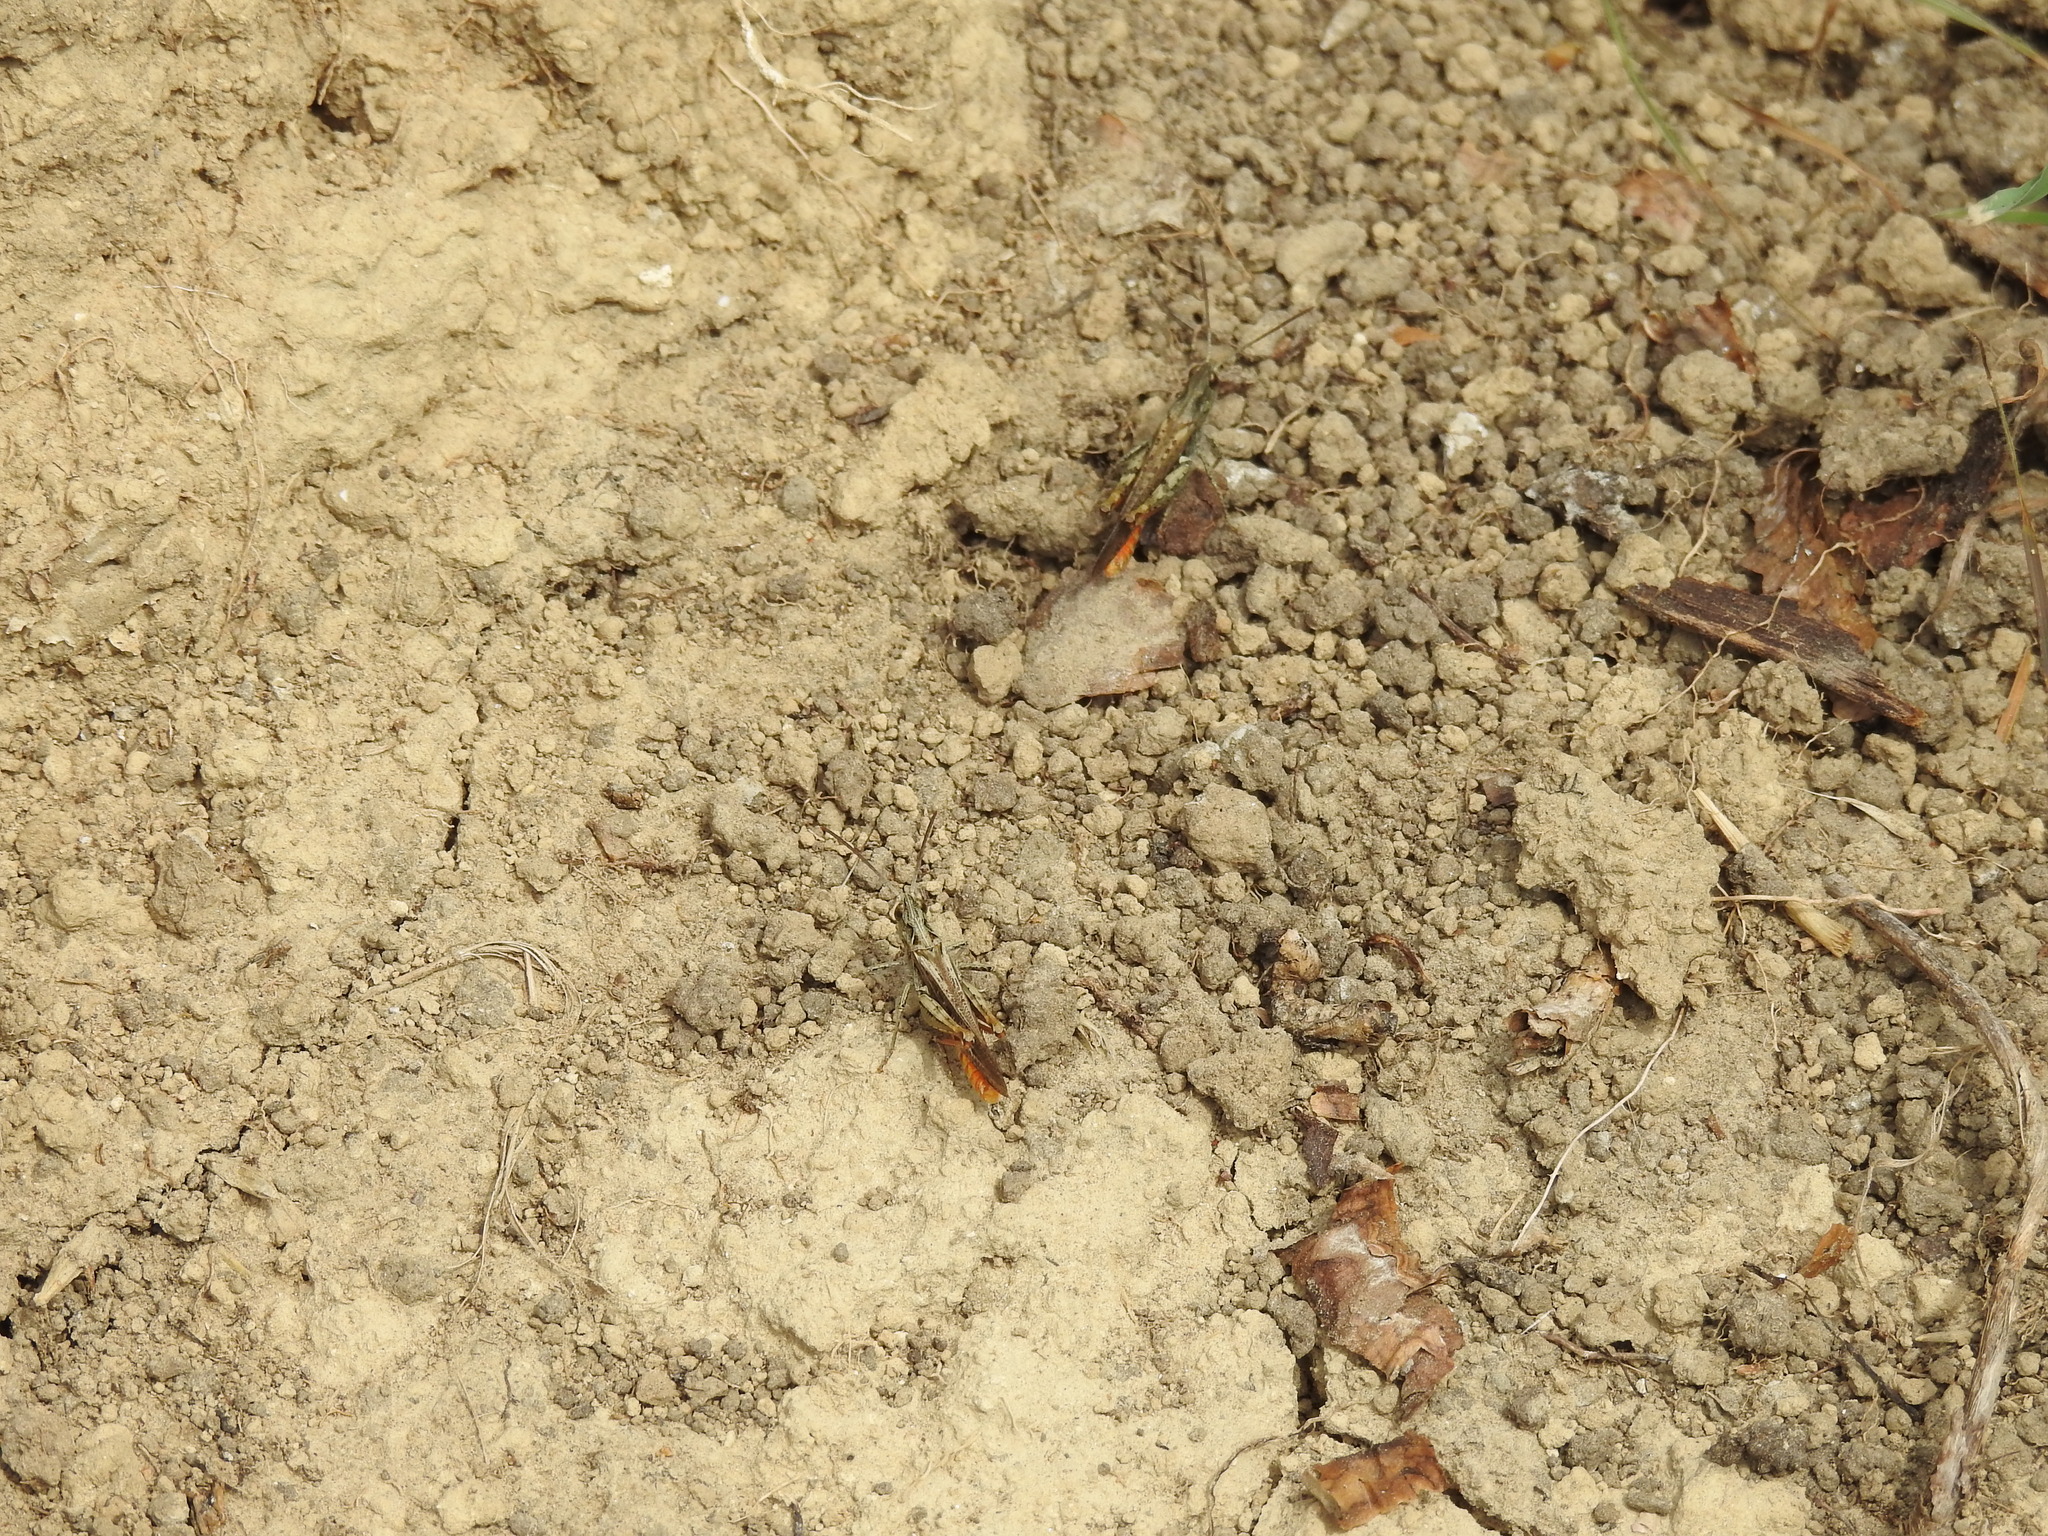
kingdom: Animalia
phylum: Arthropoda
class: Insecta
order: Orthoptera
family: Acrididae
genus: Chorthippus
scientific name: Chorthippus brunneus
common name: Field grasshopper
